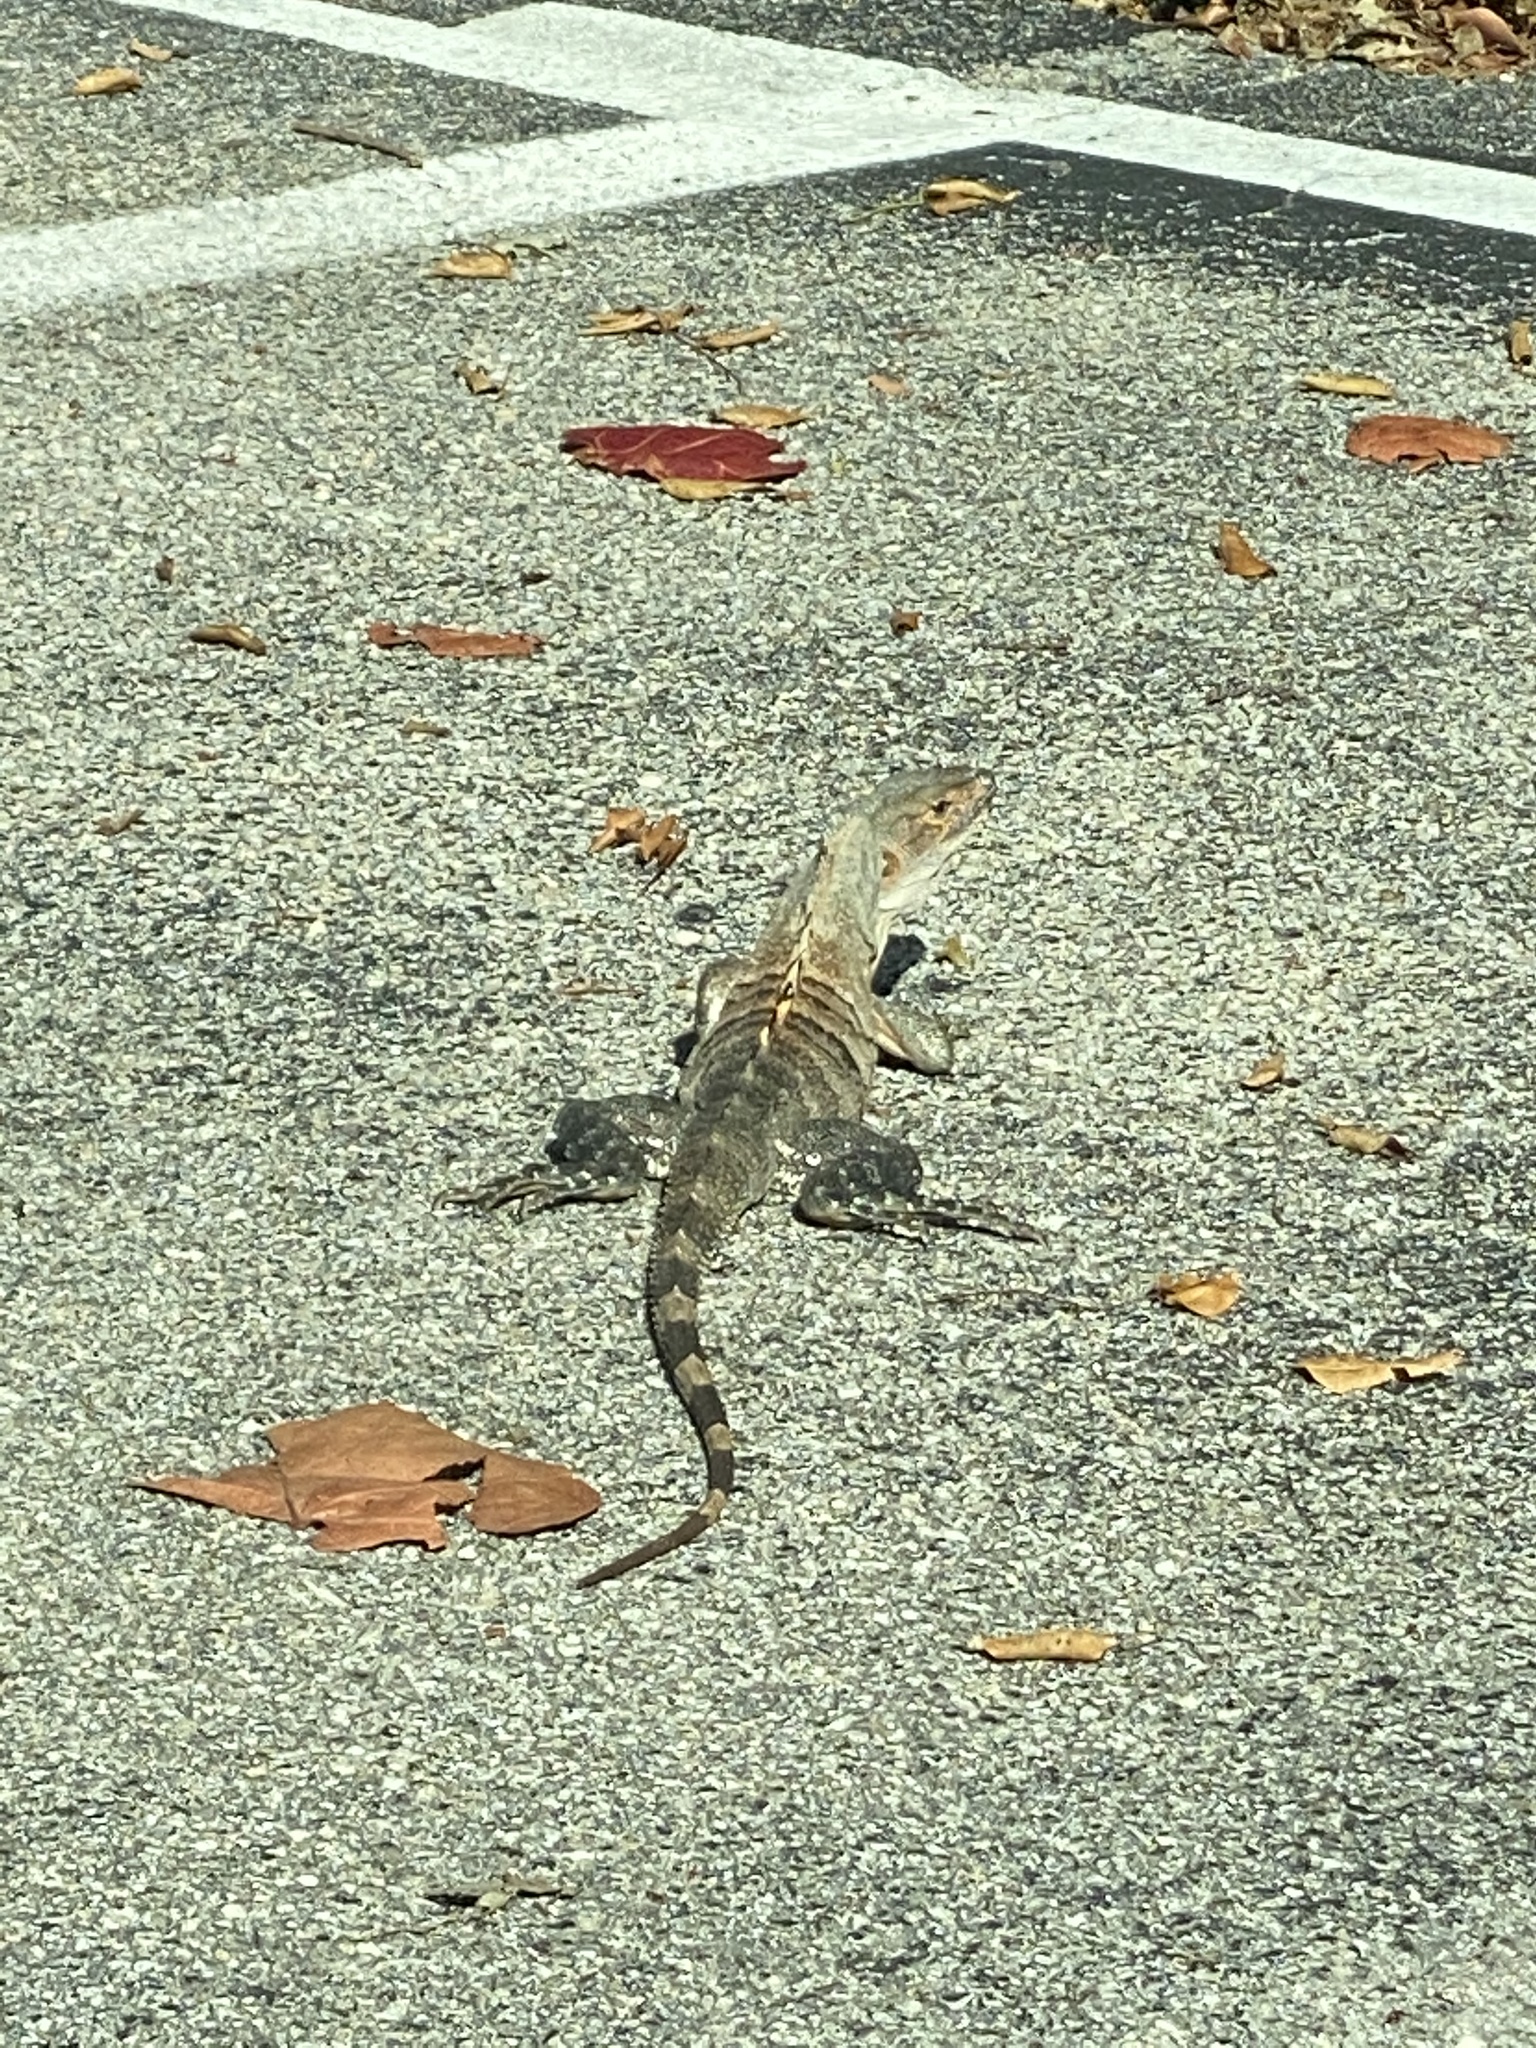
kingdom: Animalia
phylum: Chordata
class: Squamata
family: Iguanidae
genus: Ctenosaura
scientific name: Ctenosaura similis
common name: Black spiny-tailed iguana
